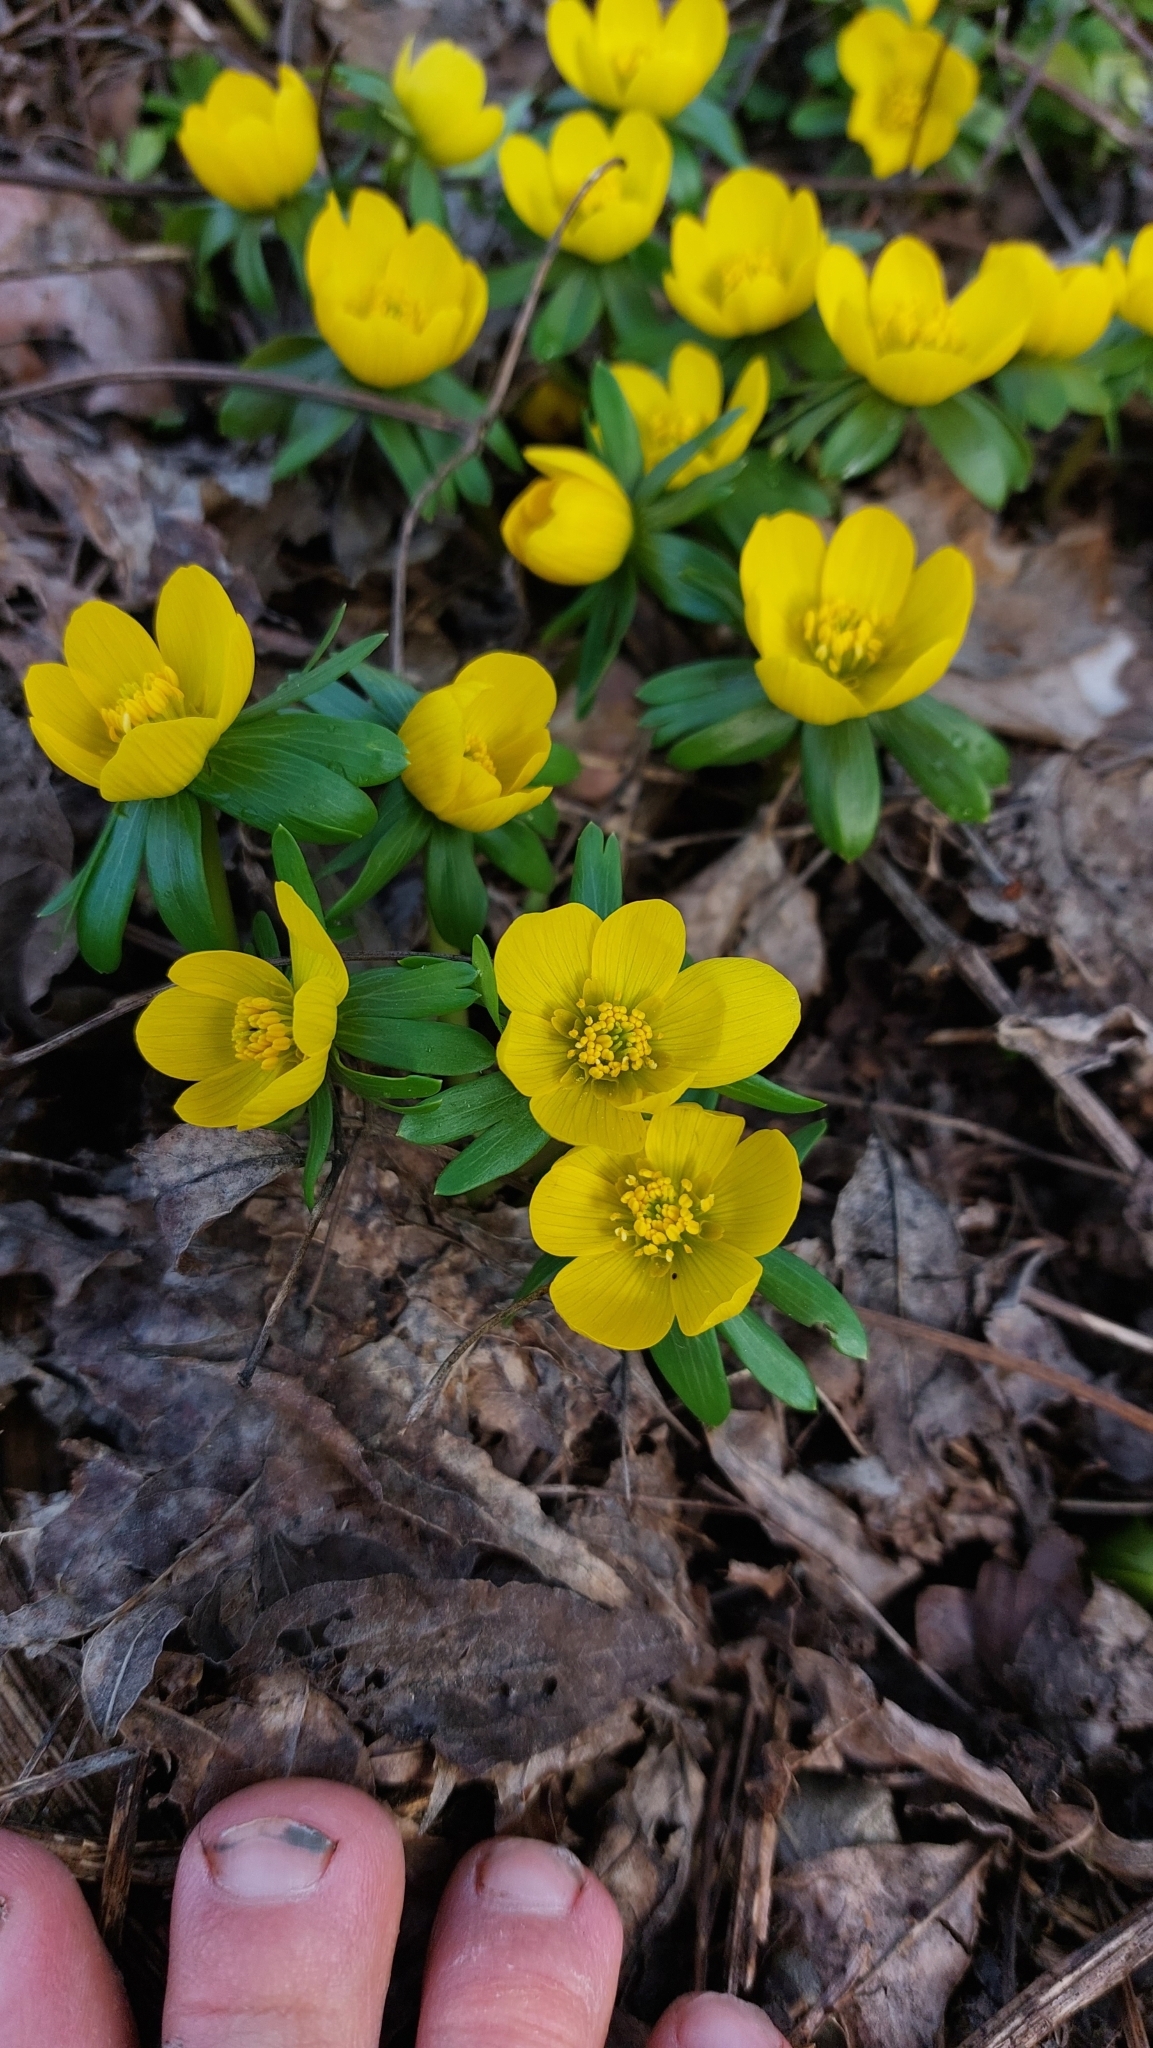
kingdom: Plantae
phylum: Tracheophyta
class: Magnoliopsida
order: Ranunculales
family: Ranunculaceae
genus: Eranthis
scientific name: Eranthis hyemalis
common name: Winter aconite
